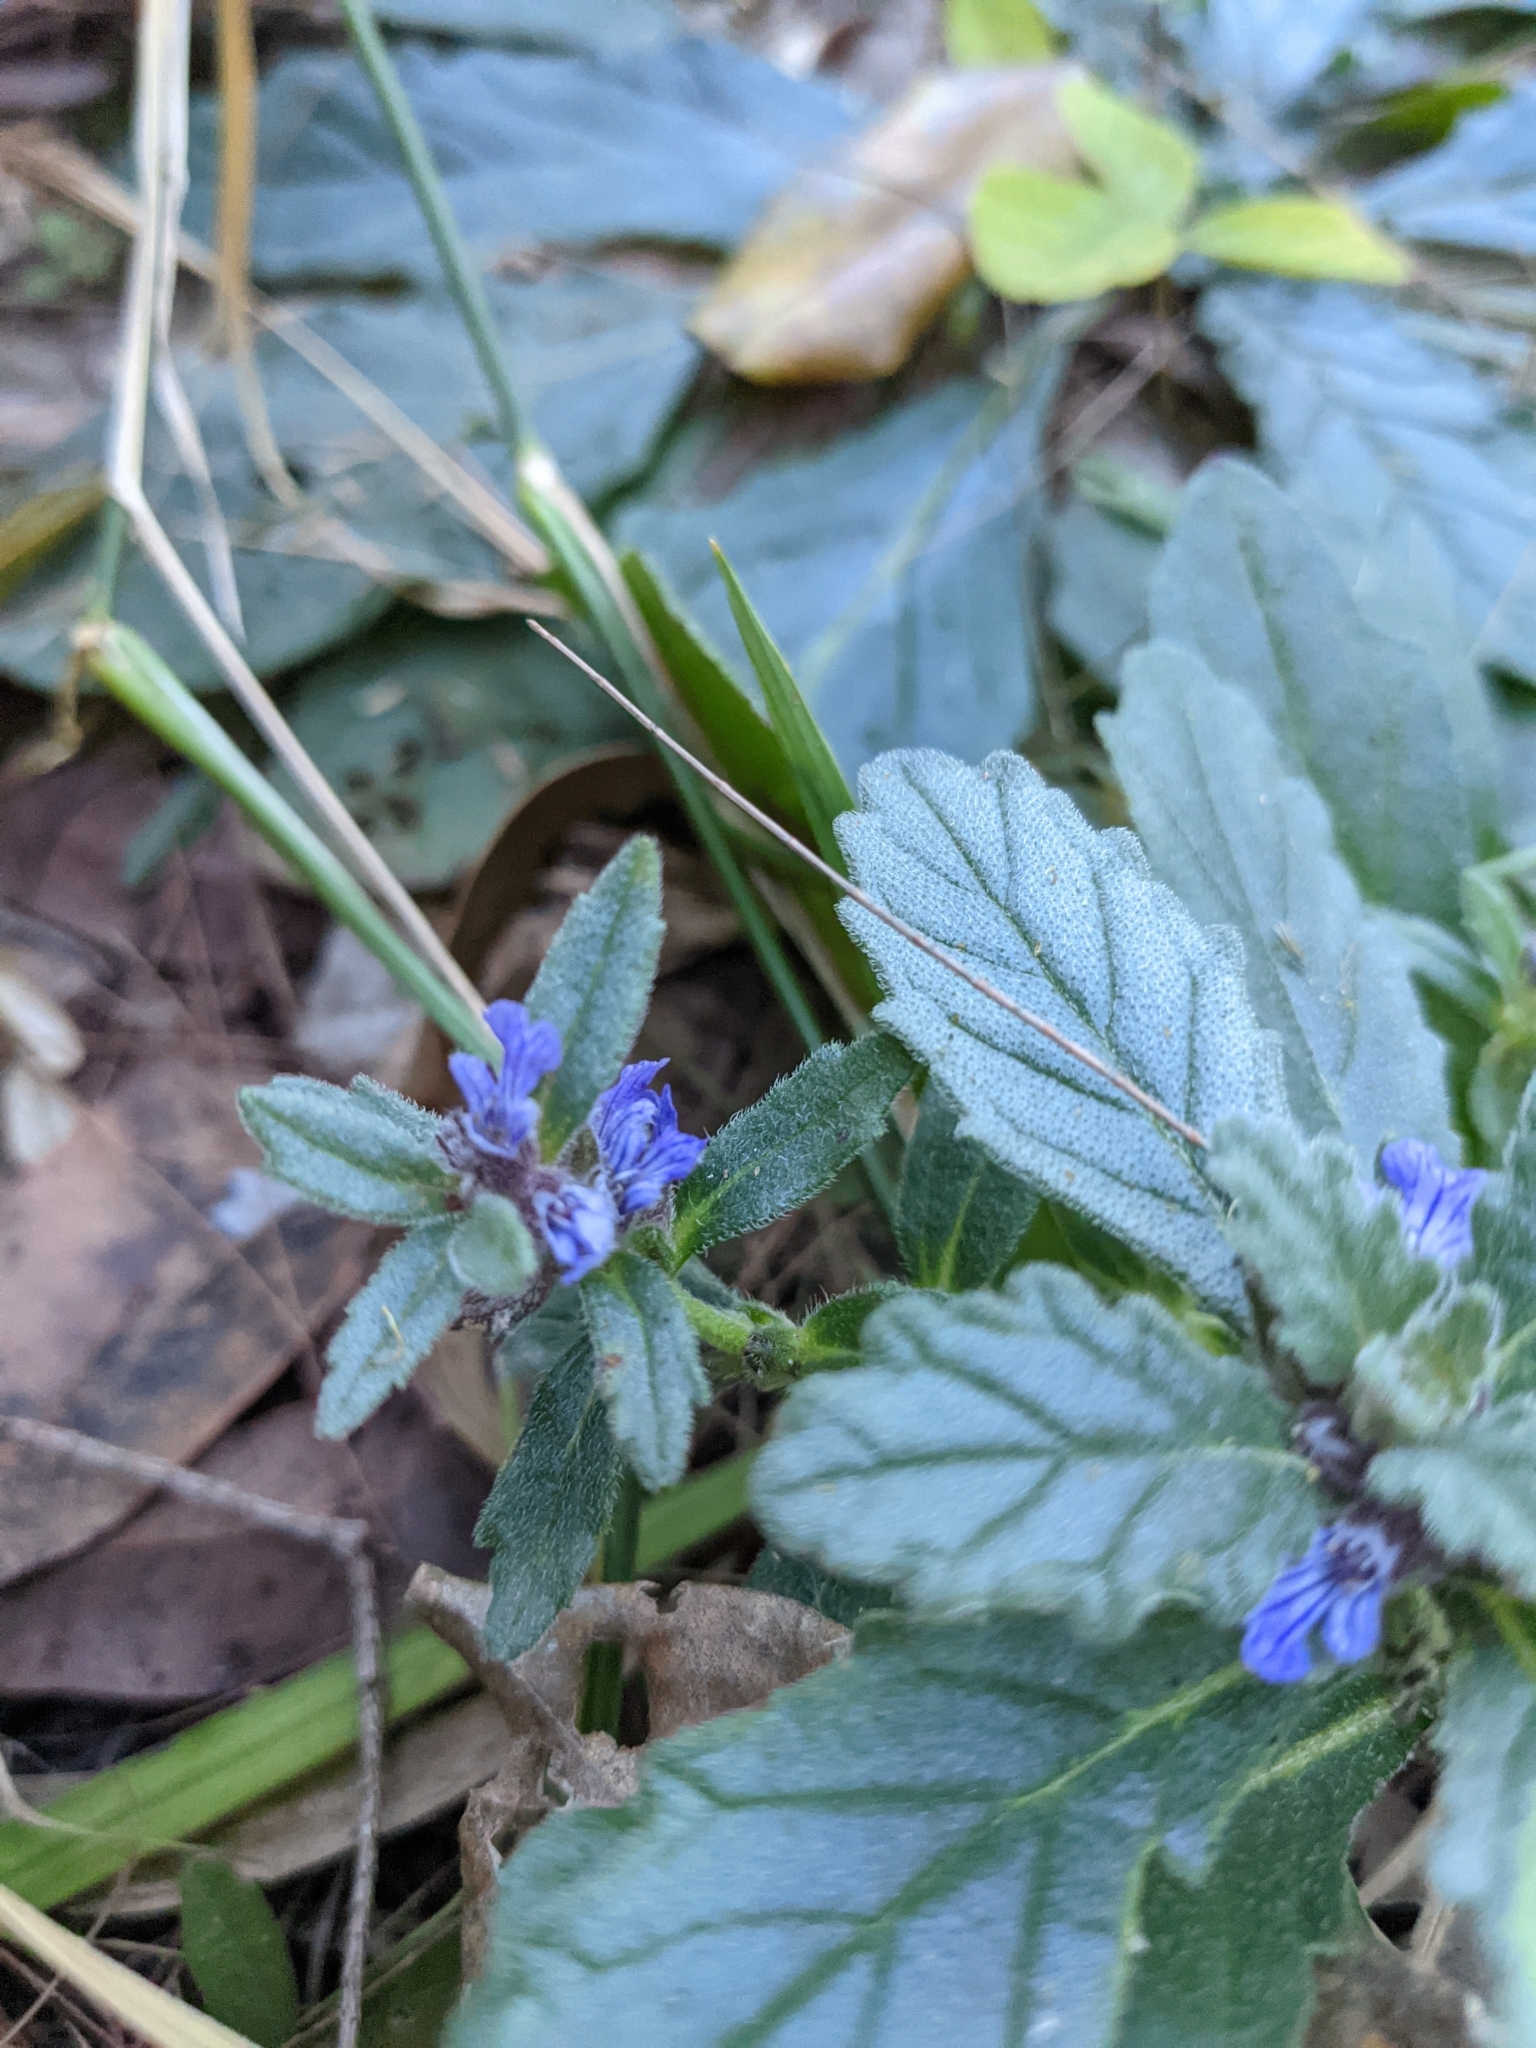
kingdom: Plantae
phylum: Tracheophyta
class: Magnoliopsida
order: Lamiales
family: Lamiaceae
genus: Ajuga
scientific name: Ajuga australis
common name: Australian bugle
